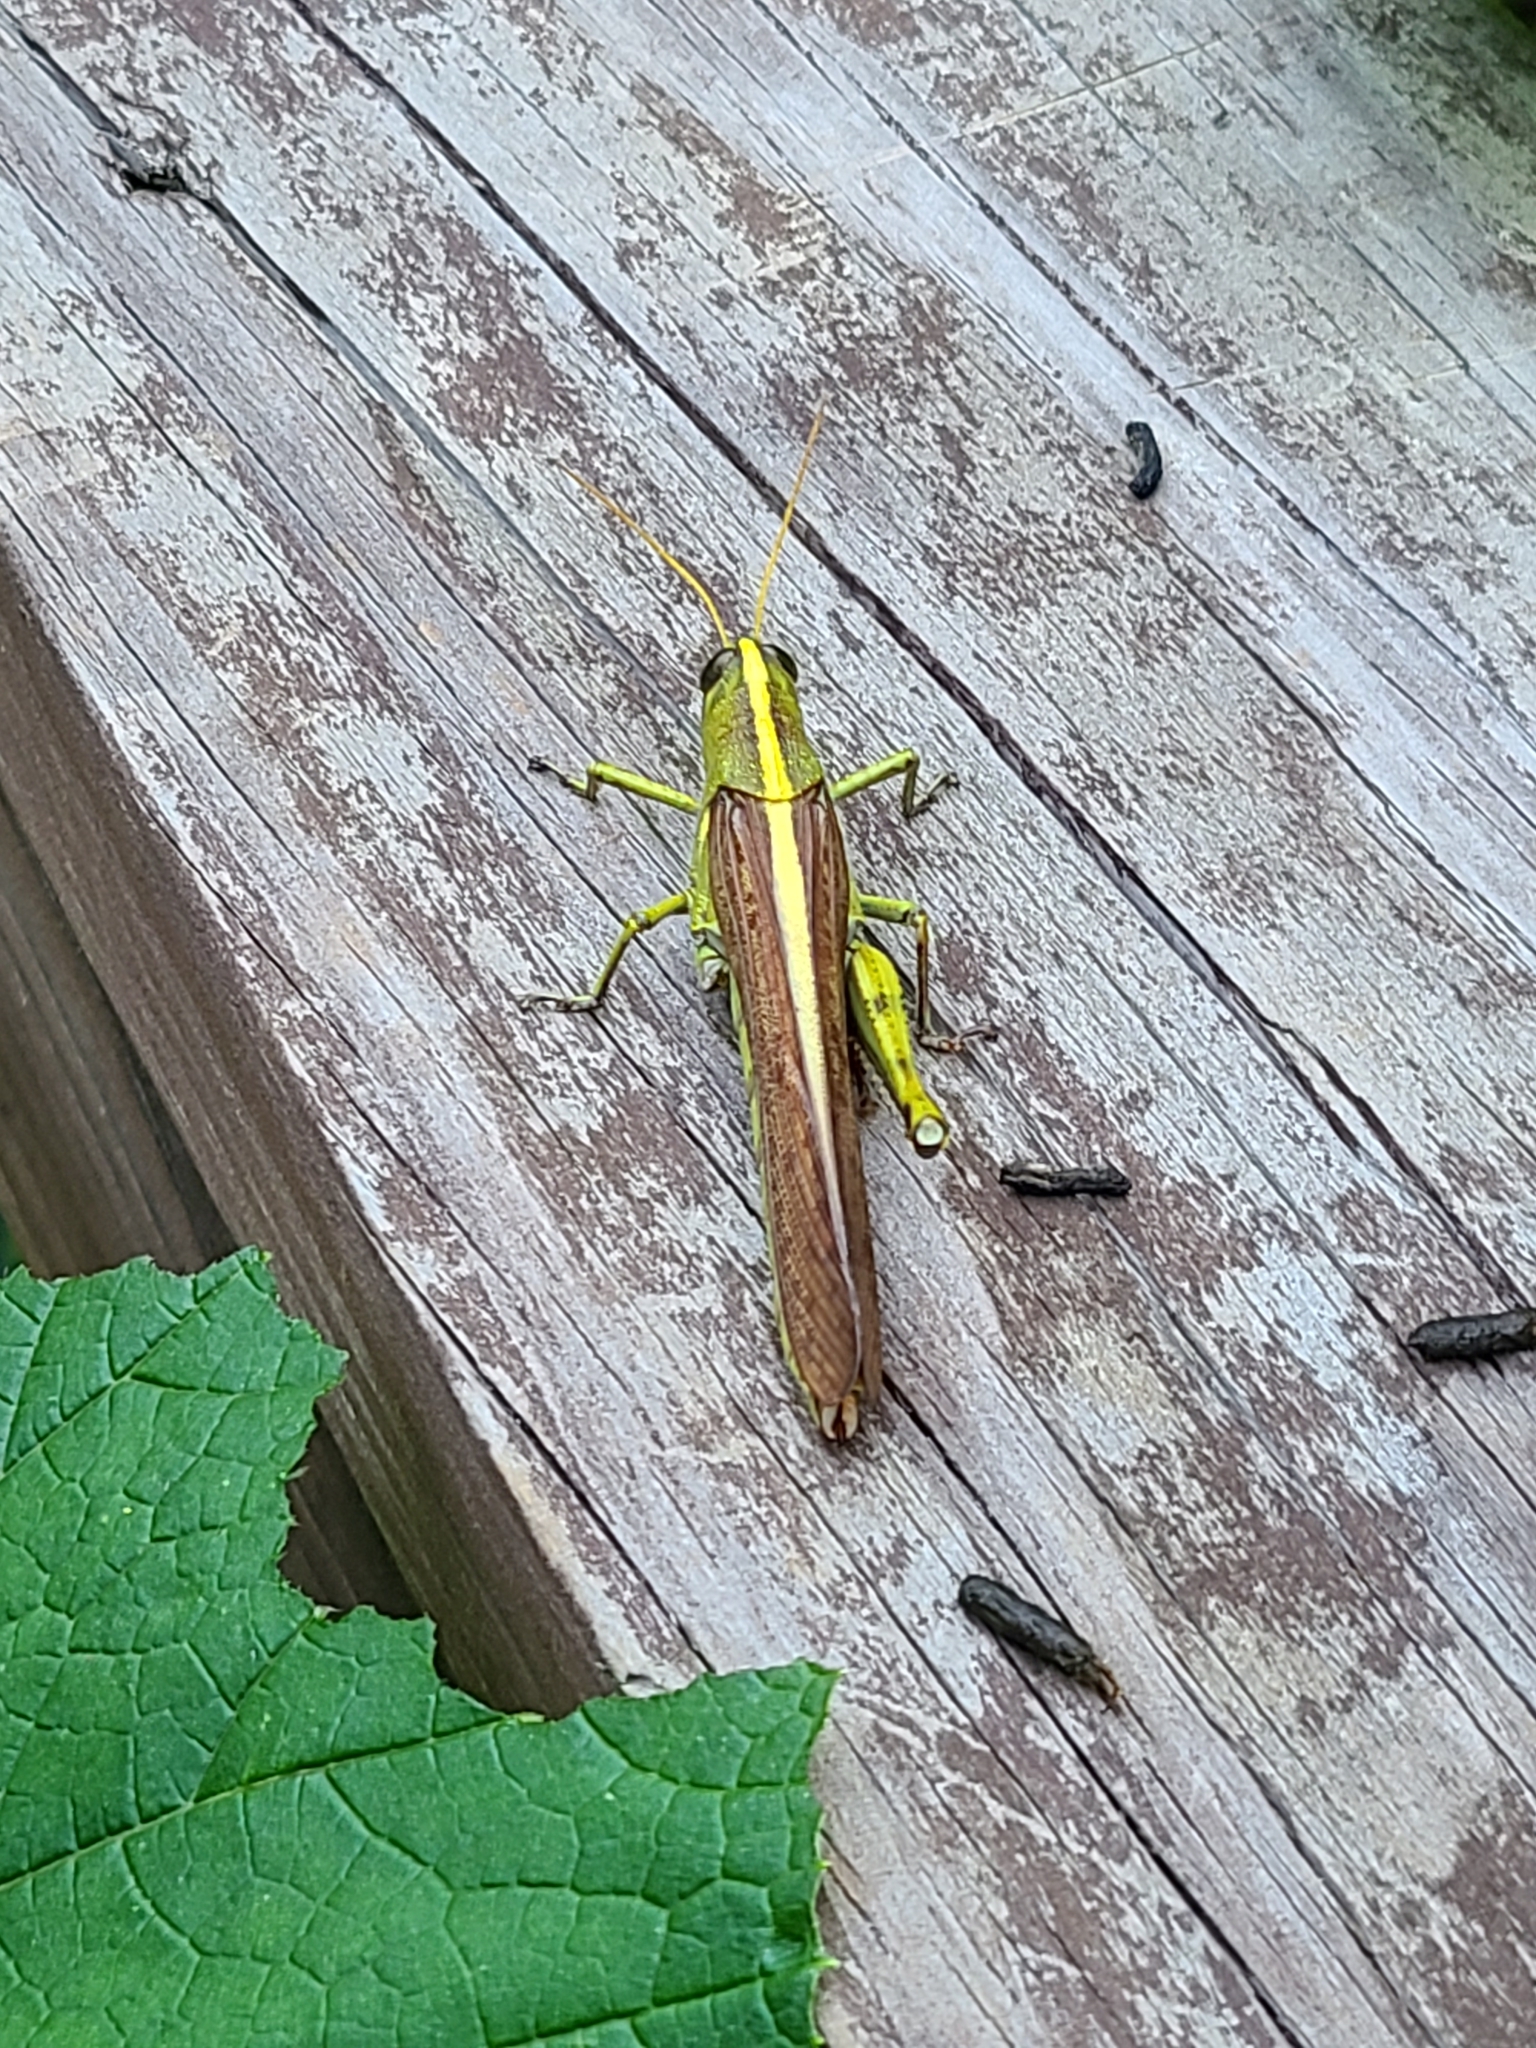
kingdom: Animalia
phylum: Arthropoda
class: Insecta
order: Orthoptera
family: Acrididae
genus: Schistocerca
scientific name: Schistocerca obscura
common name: Obscure bird grasshopper
